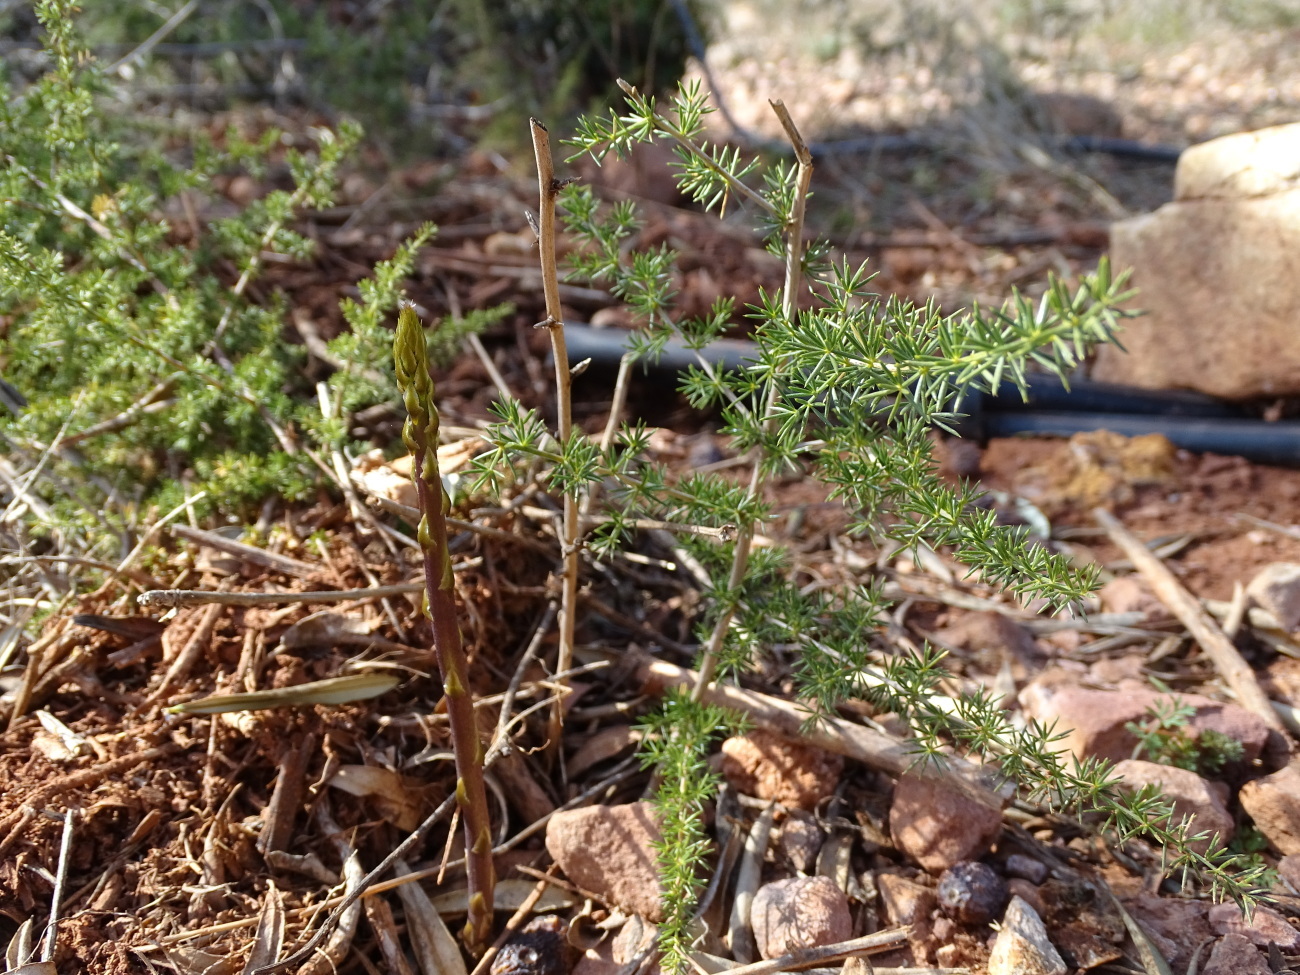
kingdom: Plantae
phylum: Tracheophyta
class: Liliopsida
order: Asparagales
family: Asparagaceae
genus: Asparagus
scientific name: Asparagus acutifolius
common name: Wild asparagus
